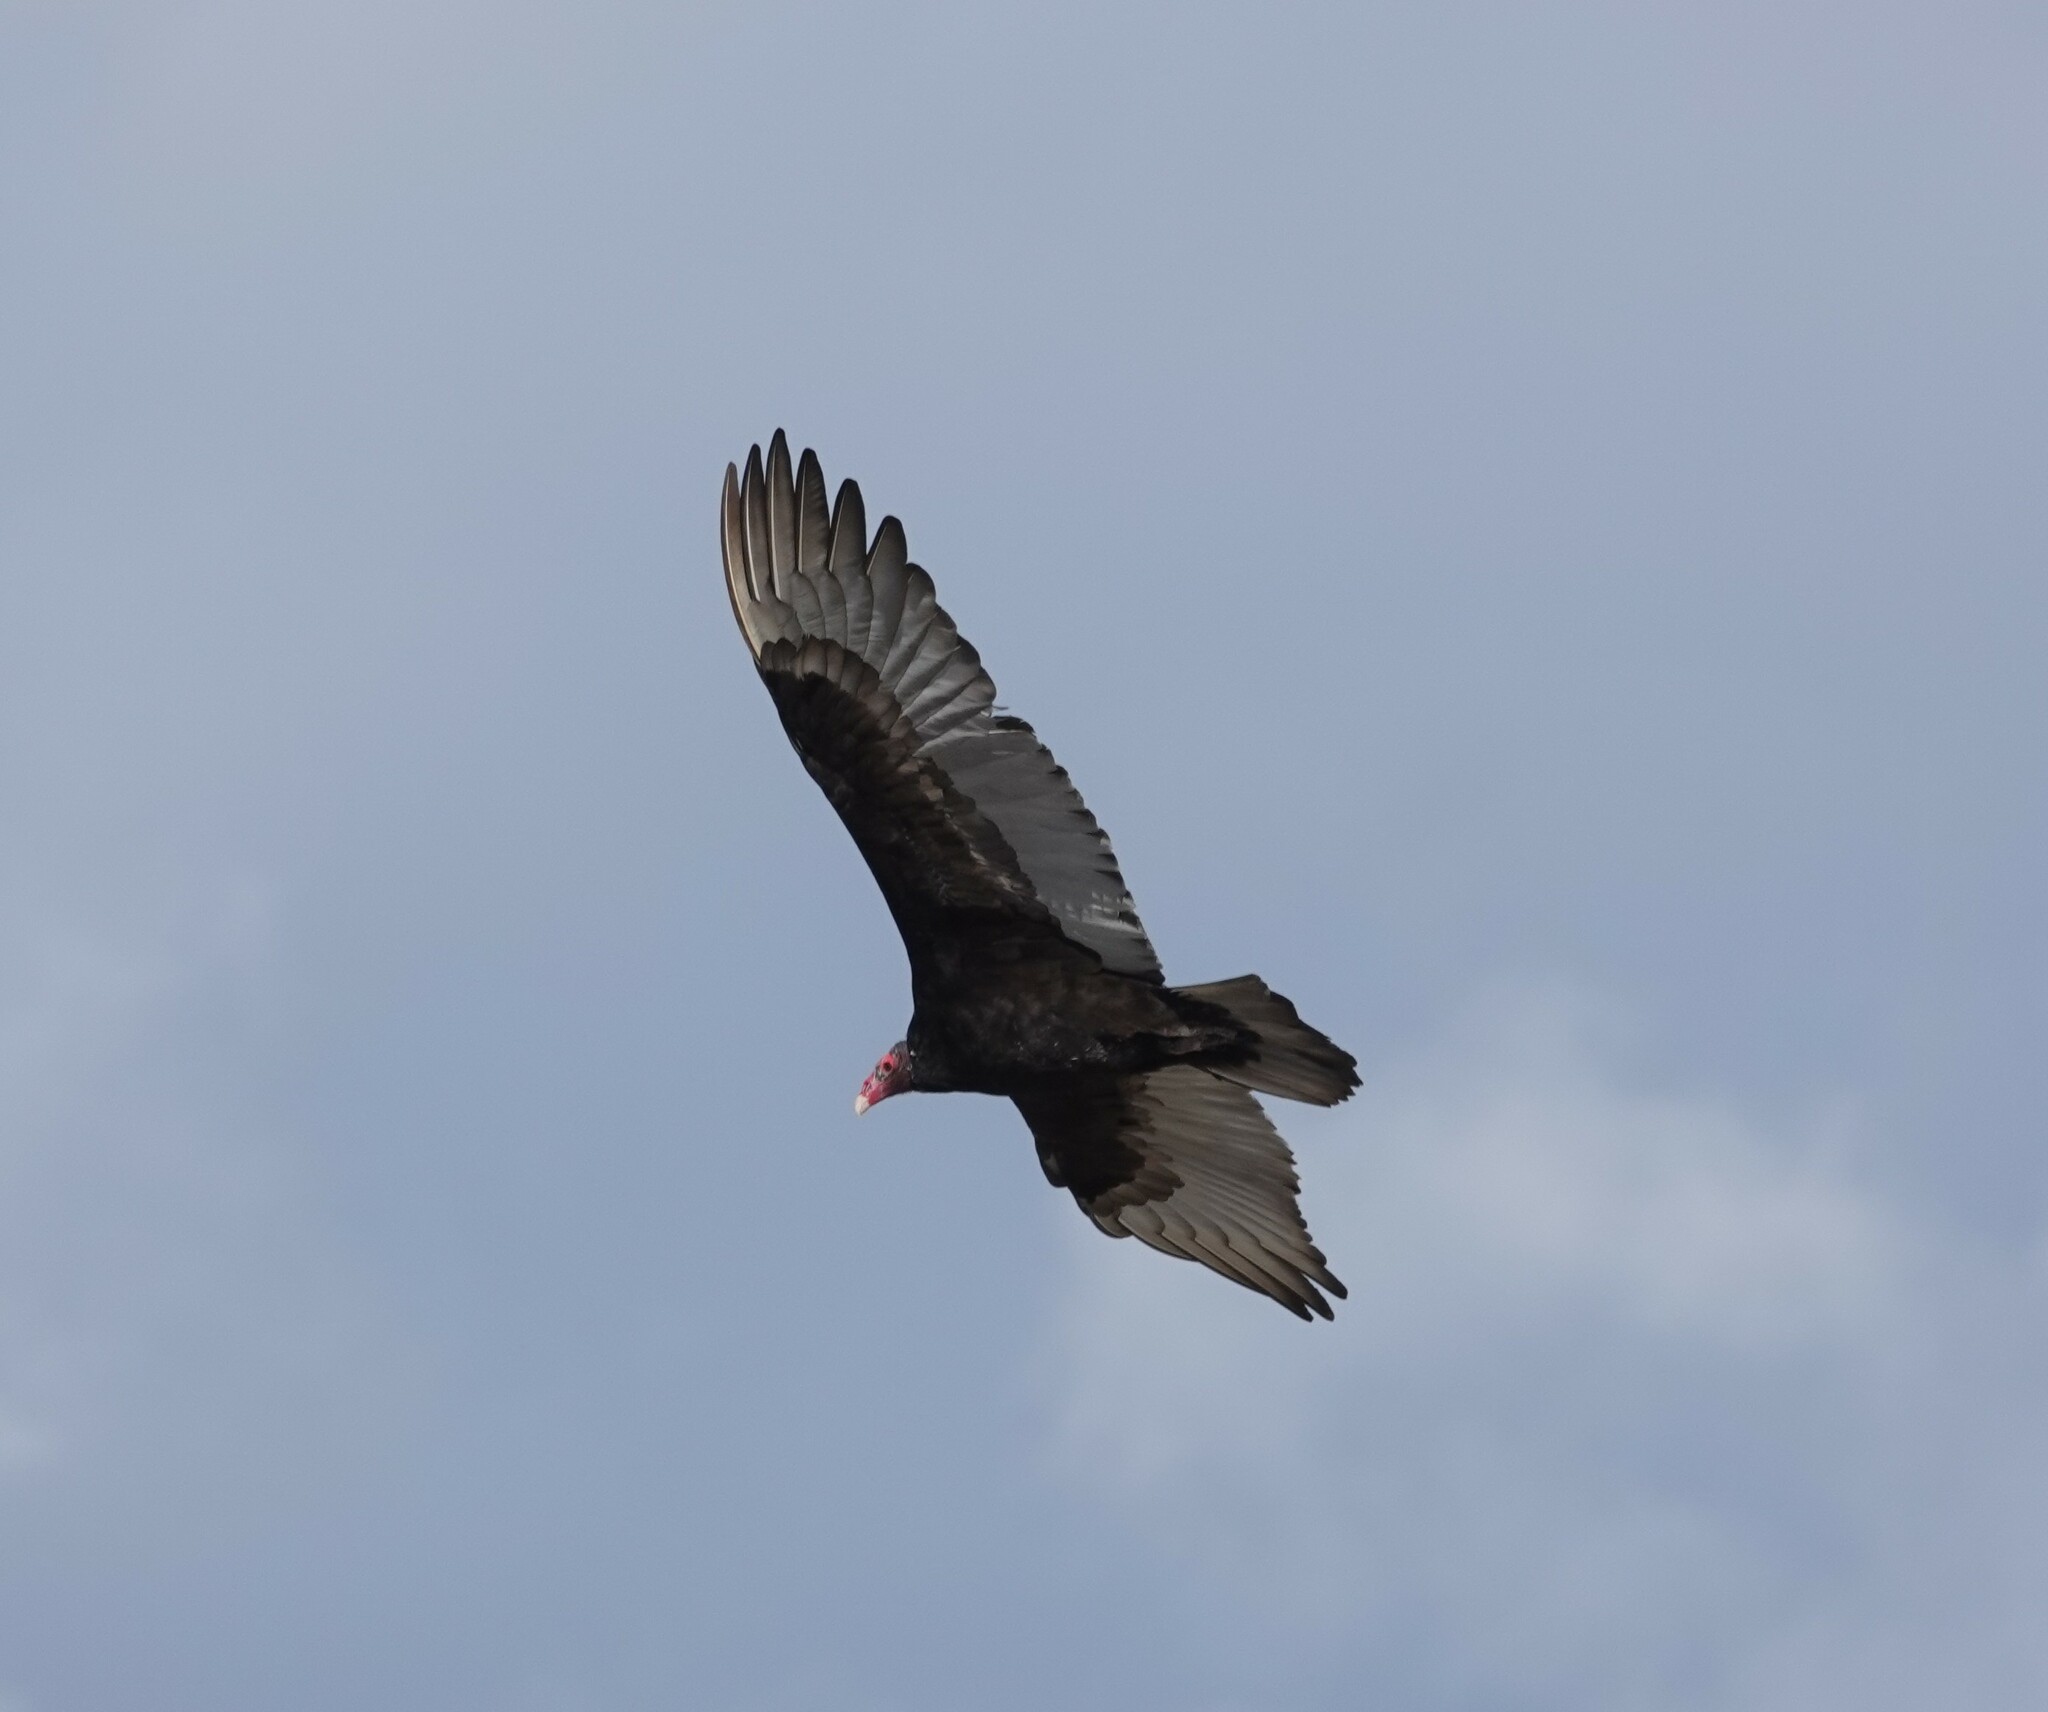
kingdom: Animalia
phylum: Chordata
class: Aves
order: Accipitriformes
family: Cathartidae
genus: Cathartes
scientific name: Cathartes aura
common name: Turkey vulture
